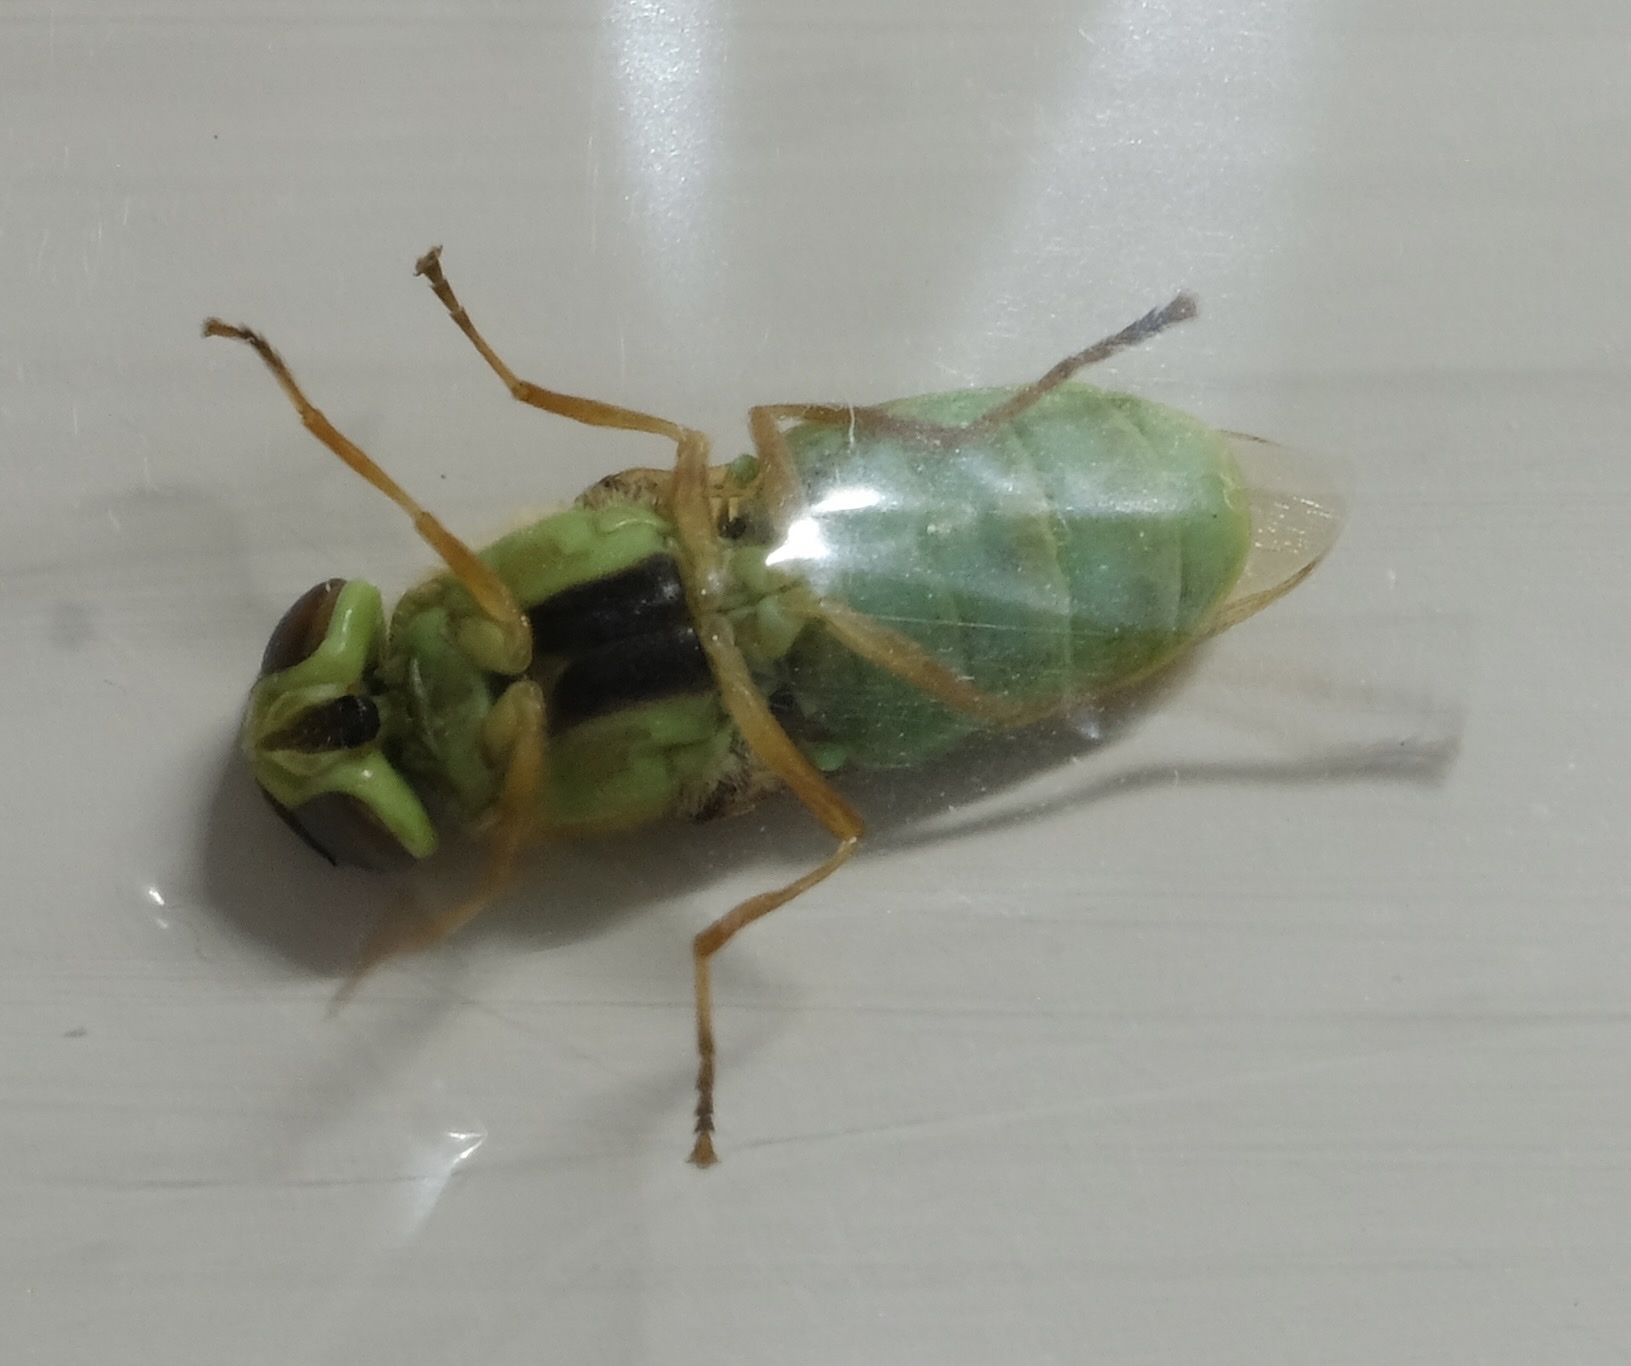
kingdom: Animalia
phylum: Arthropoda
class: Insecta
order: Diptera
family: Stratiomyidae
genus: Odontomyia
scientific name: Odontomyia cincta
